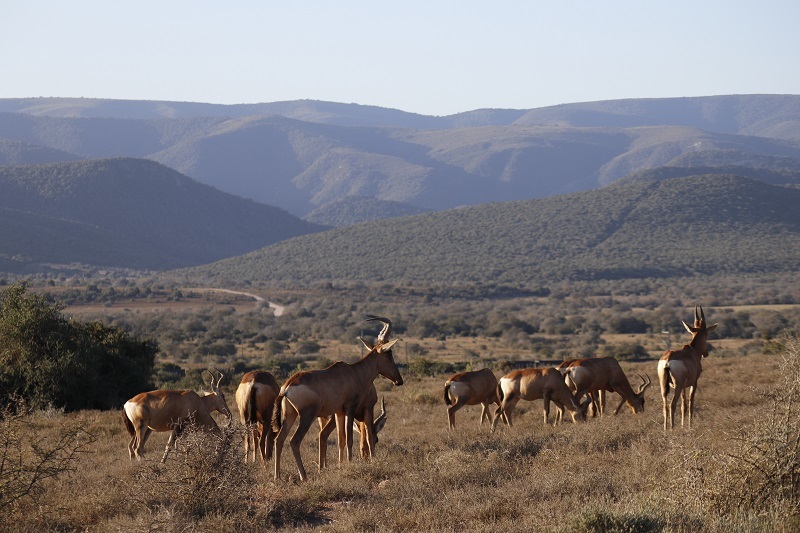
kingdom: Animalia
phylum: Chordata
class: Mammalia
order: Artiodactyla
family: Bovidae
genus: Alcelaphus
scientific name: Alcelaphus caama
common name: Red hartebeest
